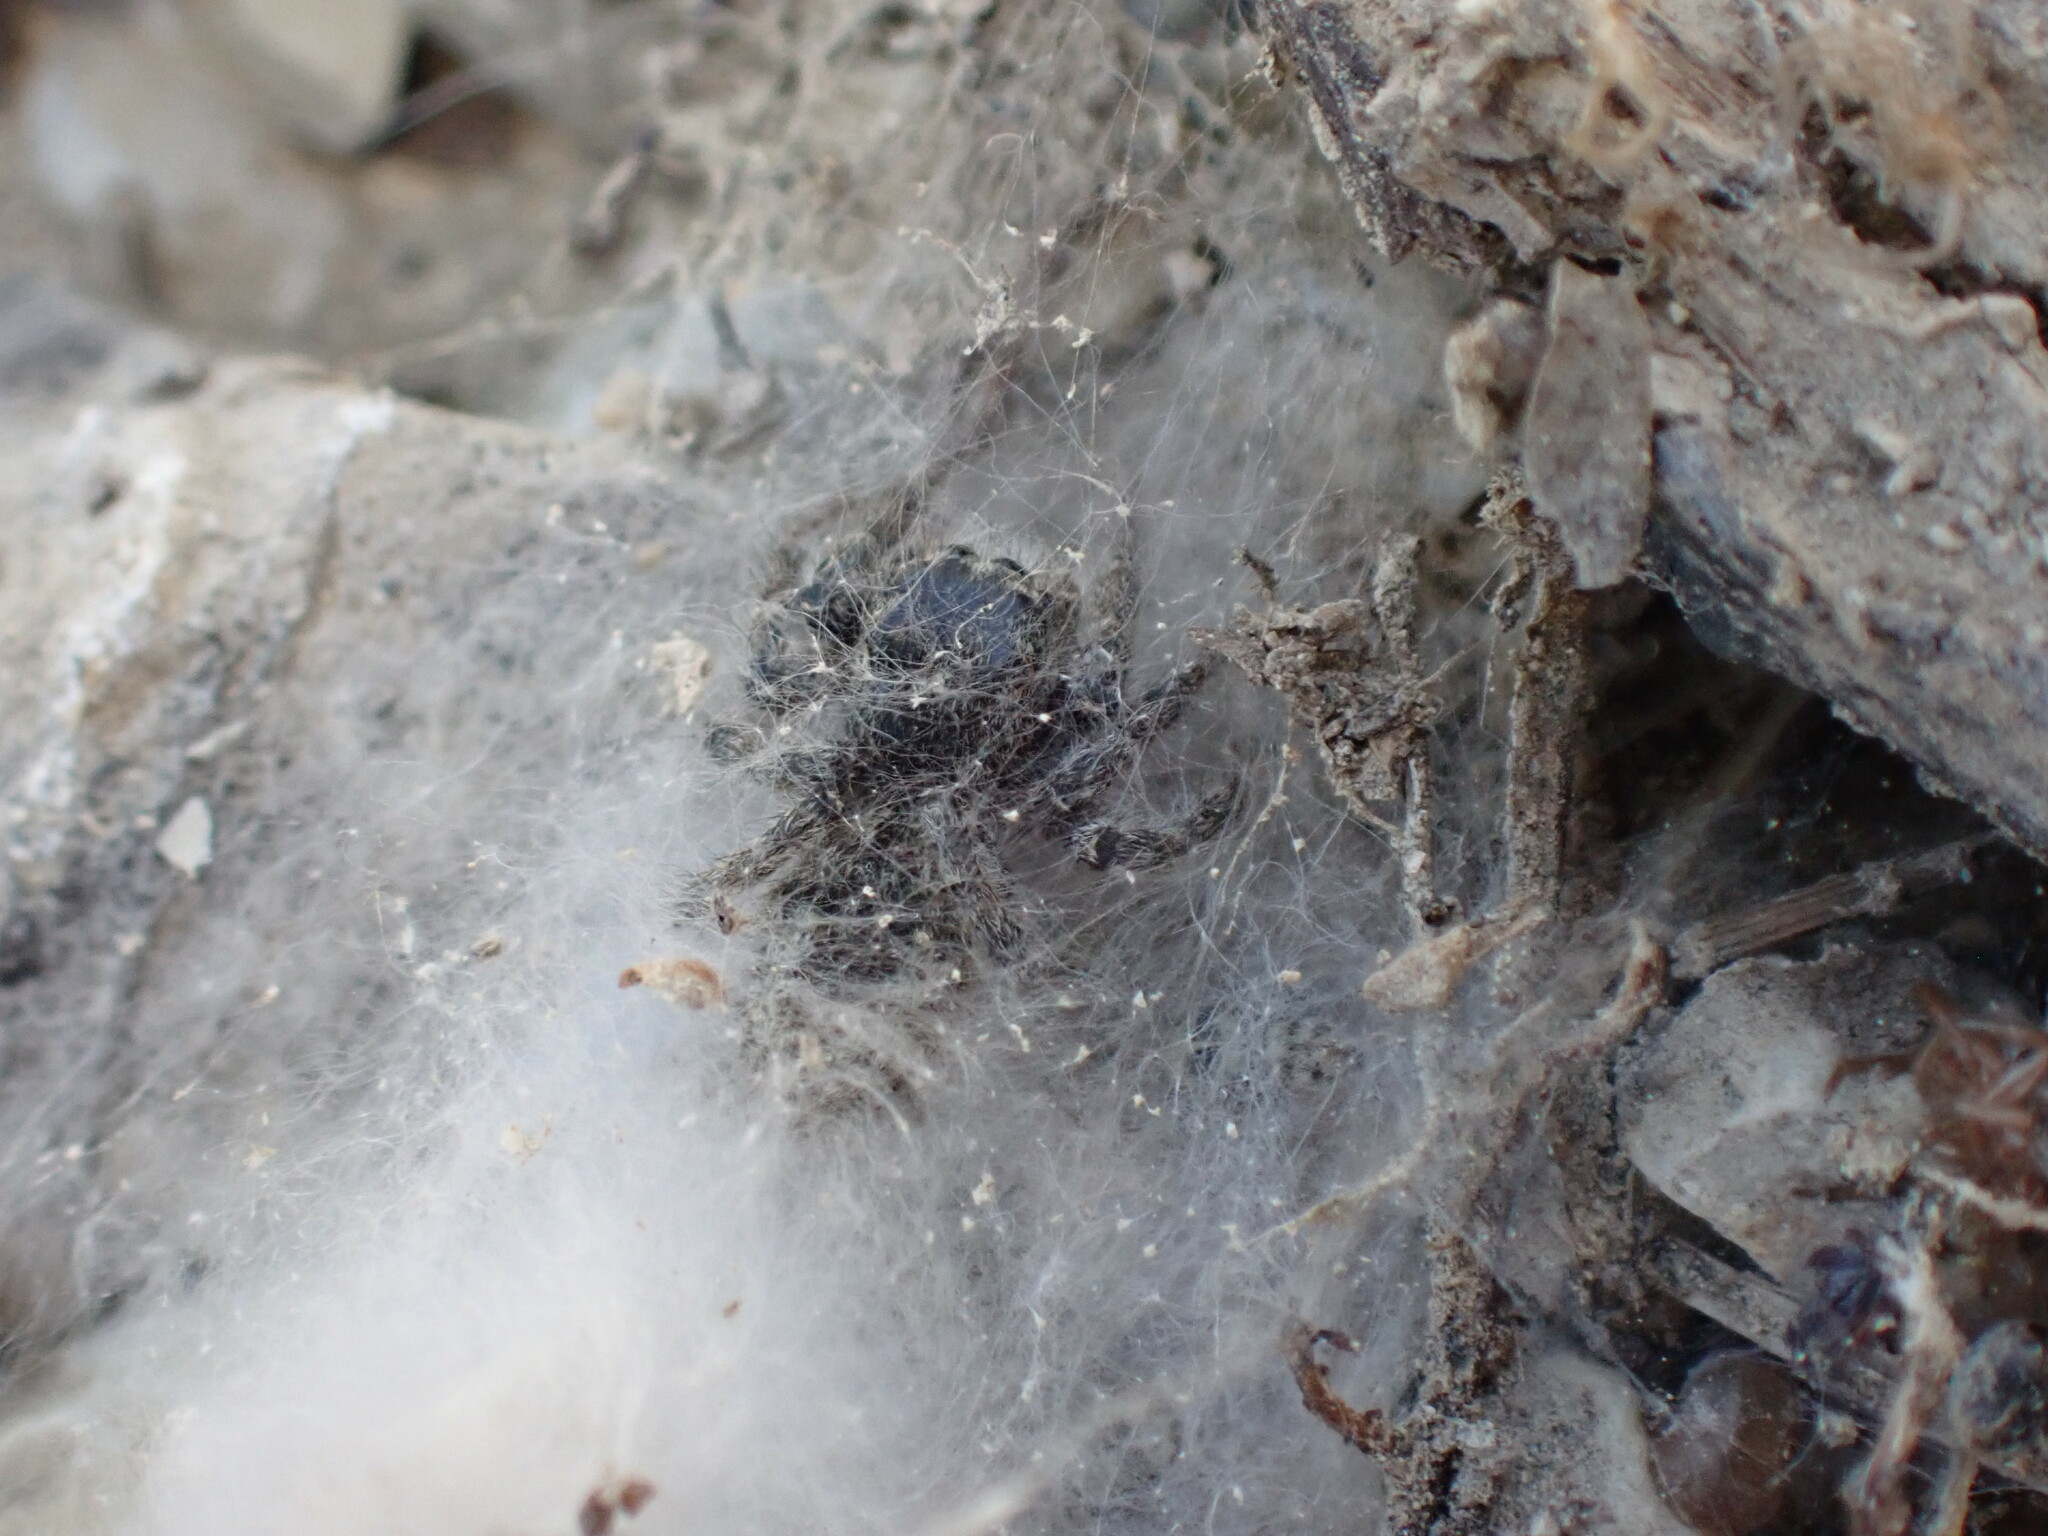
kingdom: Animalia
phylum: Arthropoda
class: Arachnida
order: Araneae
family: Salticidae
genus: Philaeus
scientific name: Philaeus chrysops
